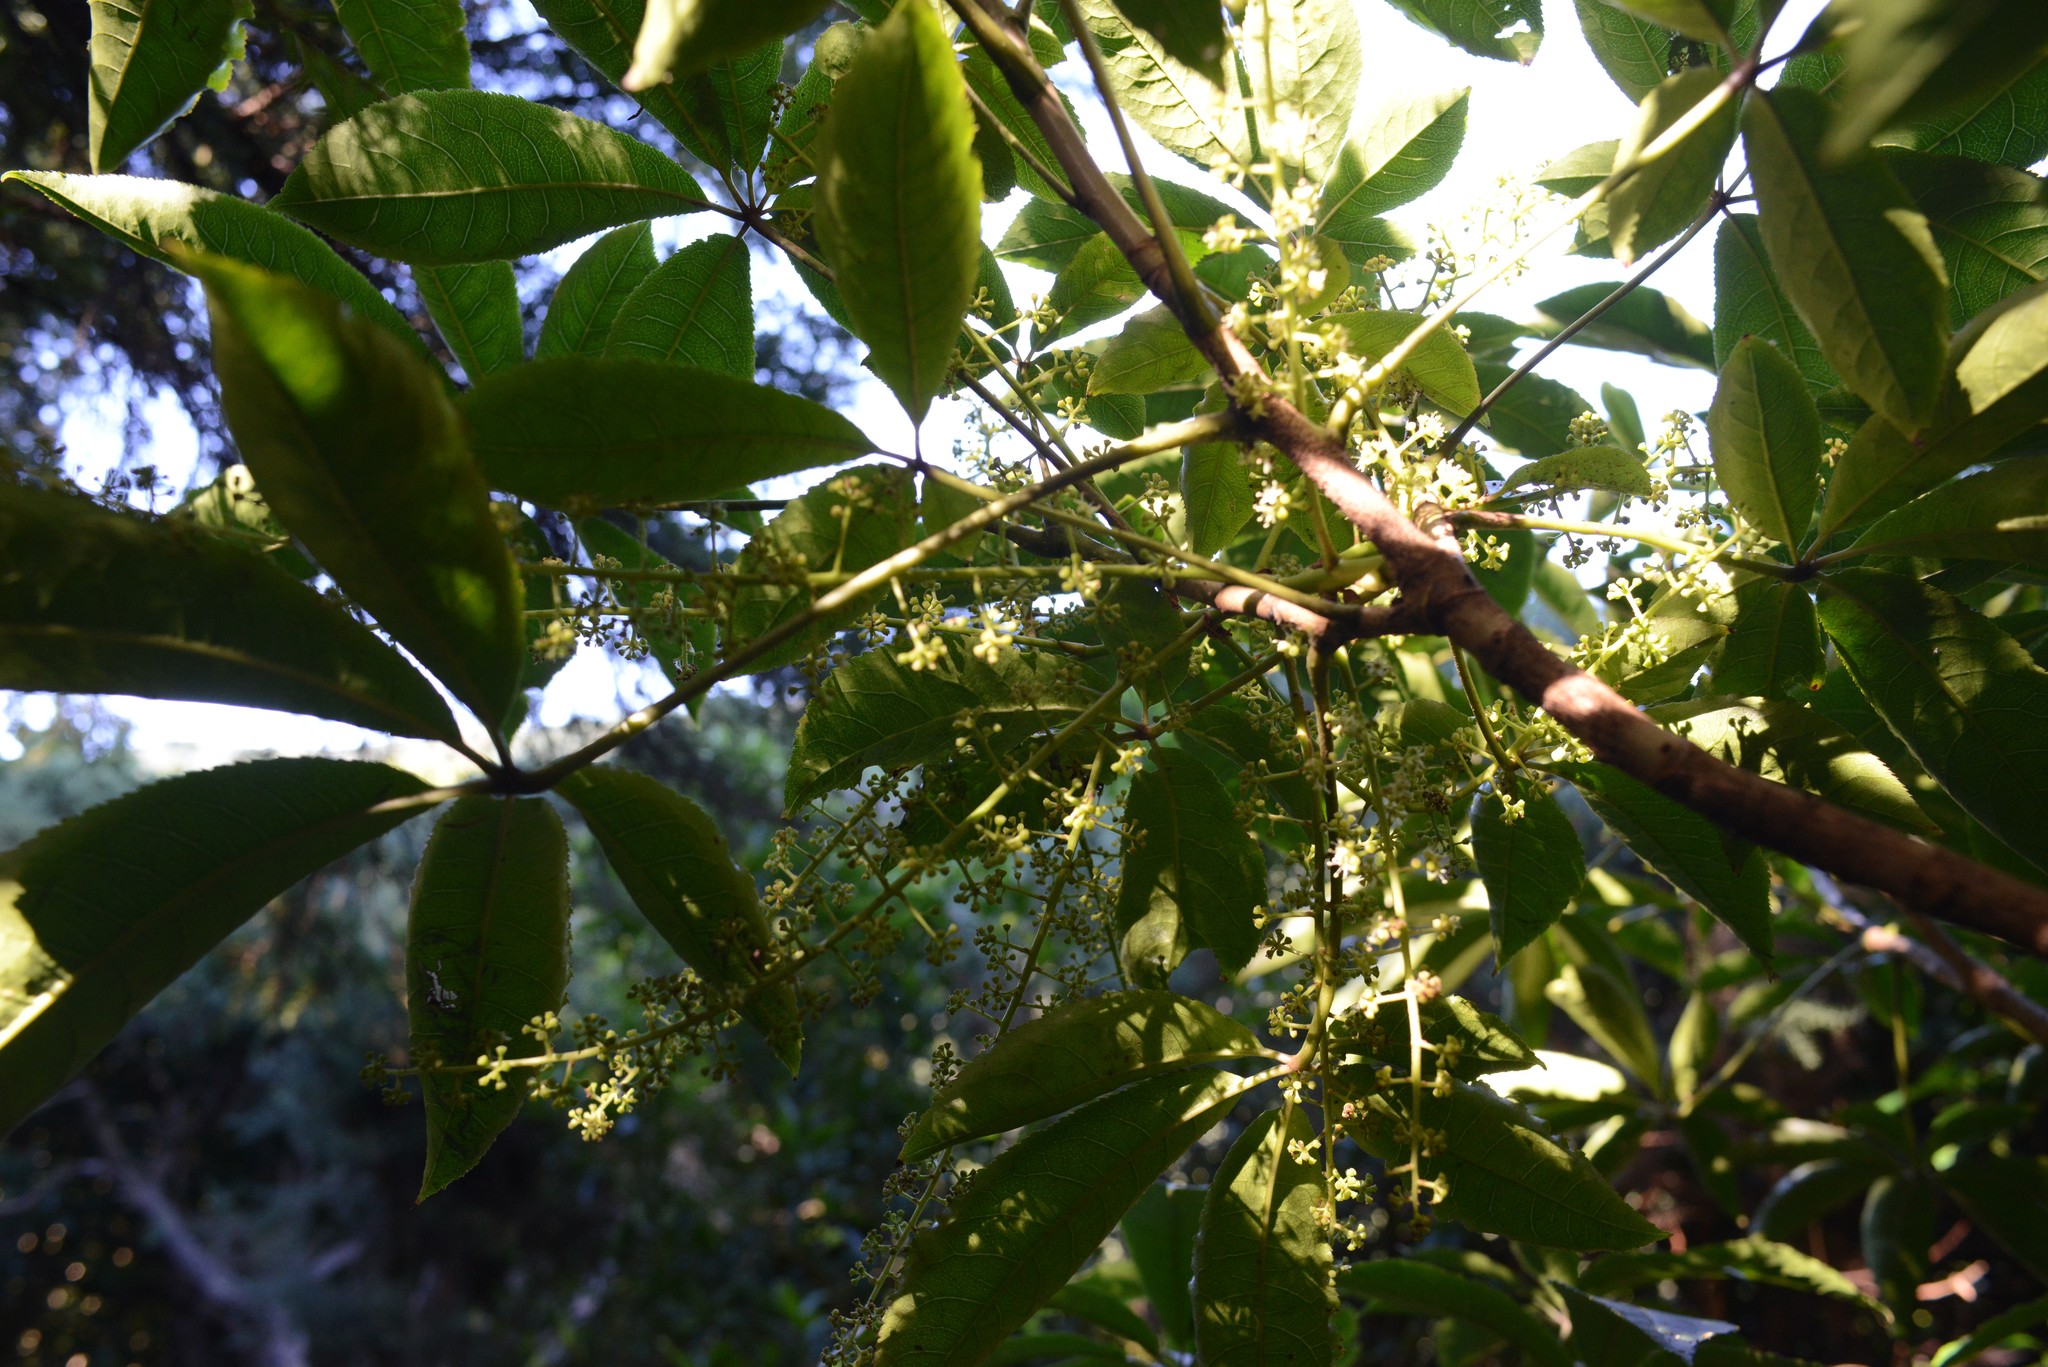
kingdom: Plantae
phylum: Tracheophyta
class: Magnoliopsida
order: Apiales
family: Araliaceae
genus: Schefflera
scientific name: Schefflera digitata
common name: Pate
